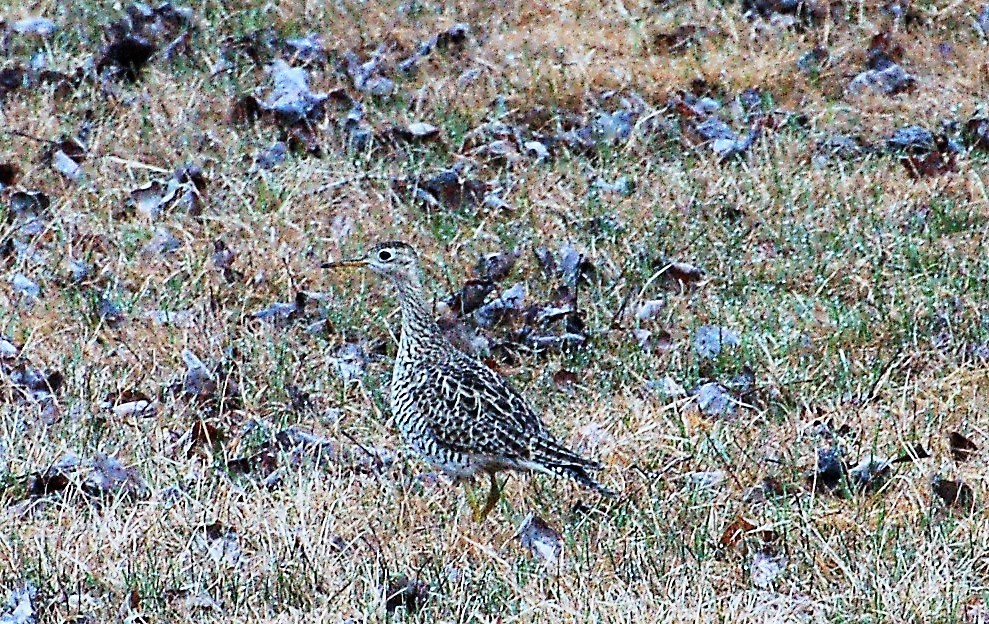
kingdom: Animalia
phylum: Chordata
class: Aves
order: Charadriiformes
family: Scolopacidae
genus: Bartramia
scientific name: Bartramia longicauda
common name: Upland sandpiper
